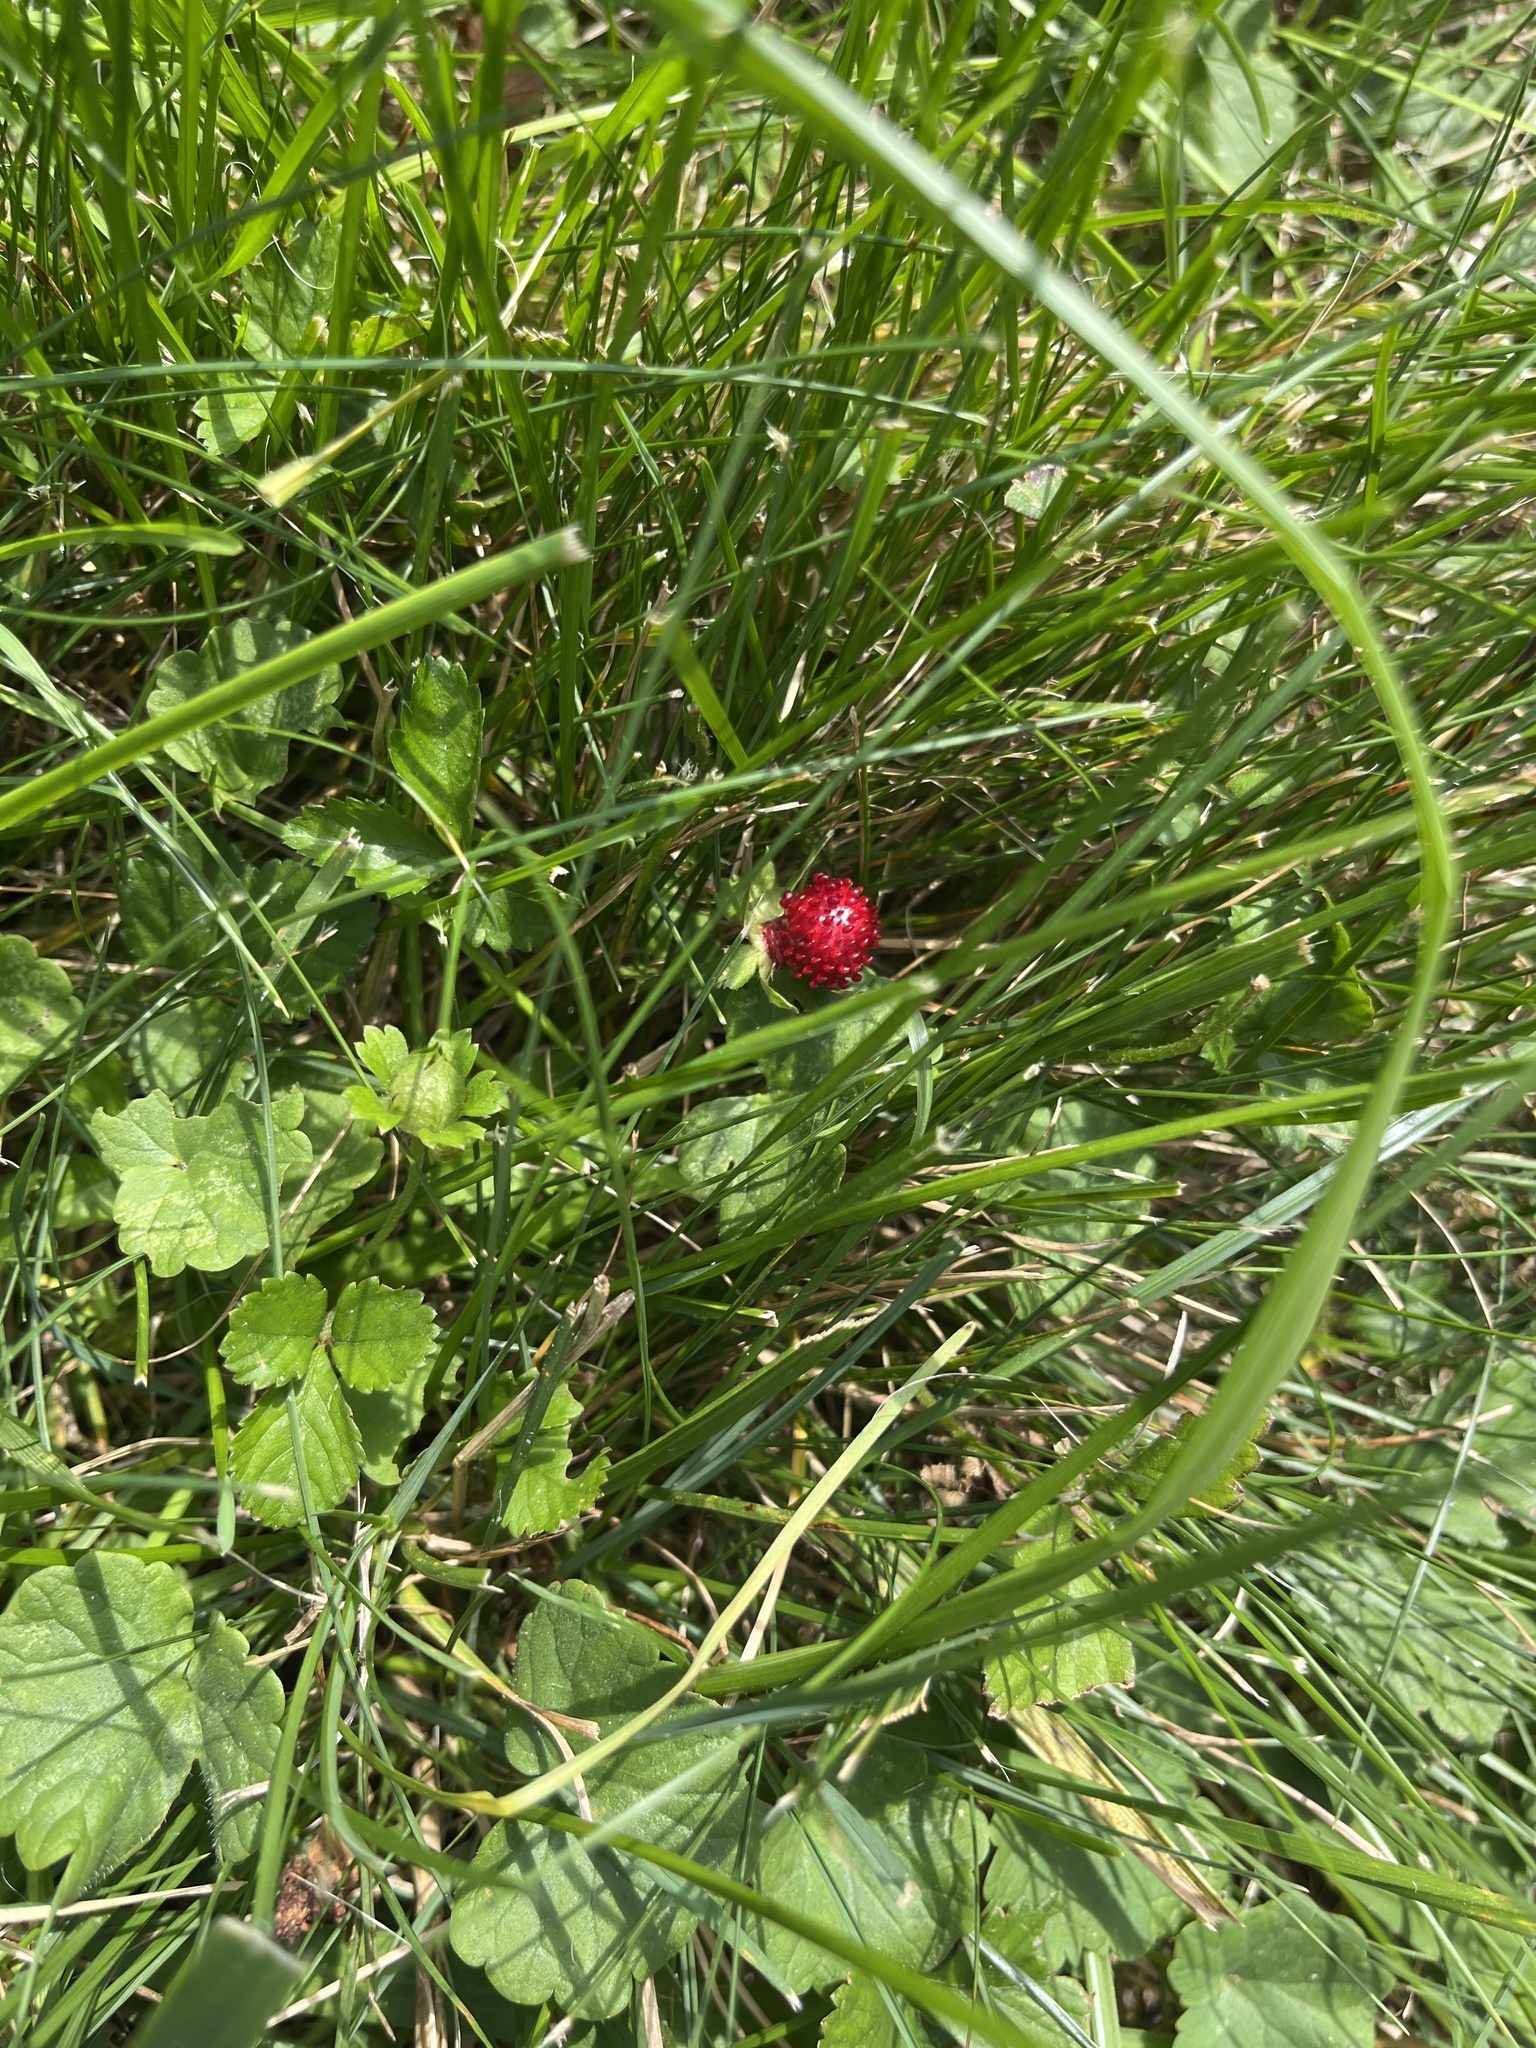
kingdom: Plantae
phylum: Tracheophyta
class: Magnoliopsida
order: Rosales
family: Rosaceae
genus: Potentilla
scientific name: Potentilla indica
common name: Yellow-flowered strawberry
